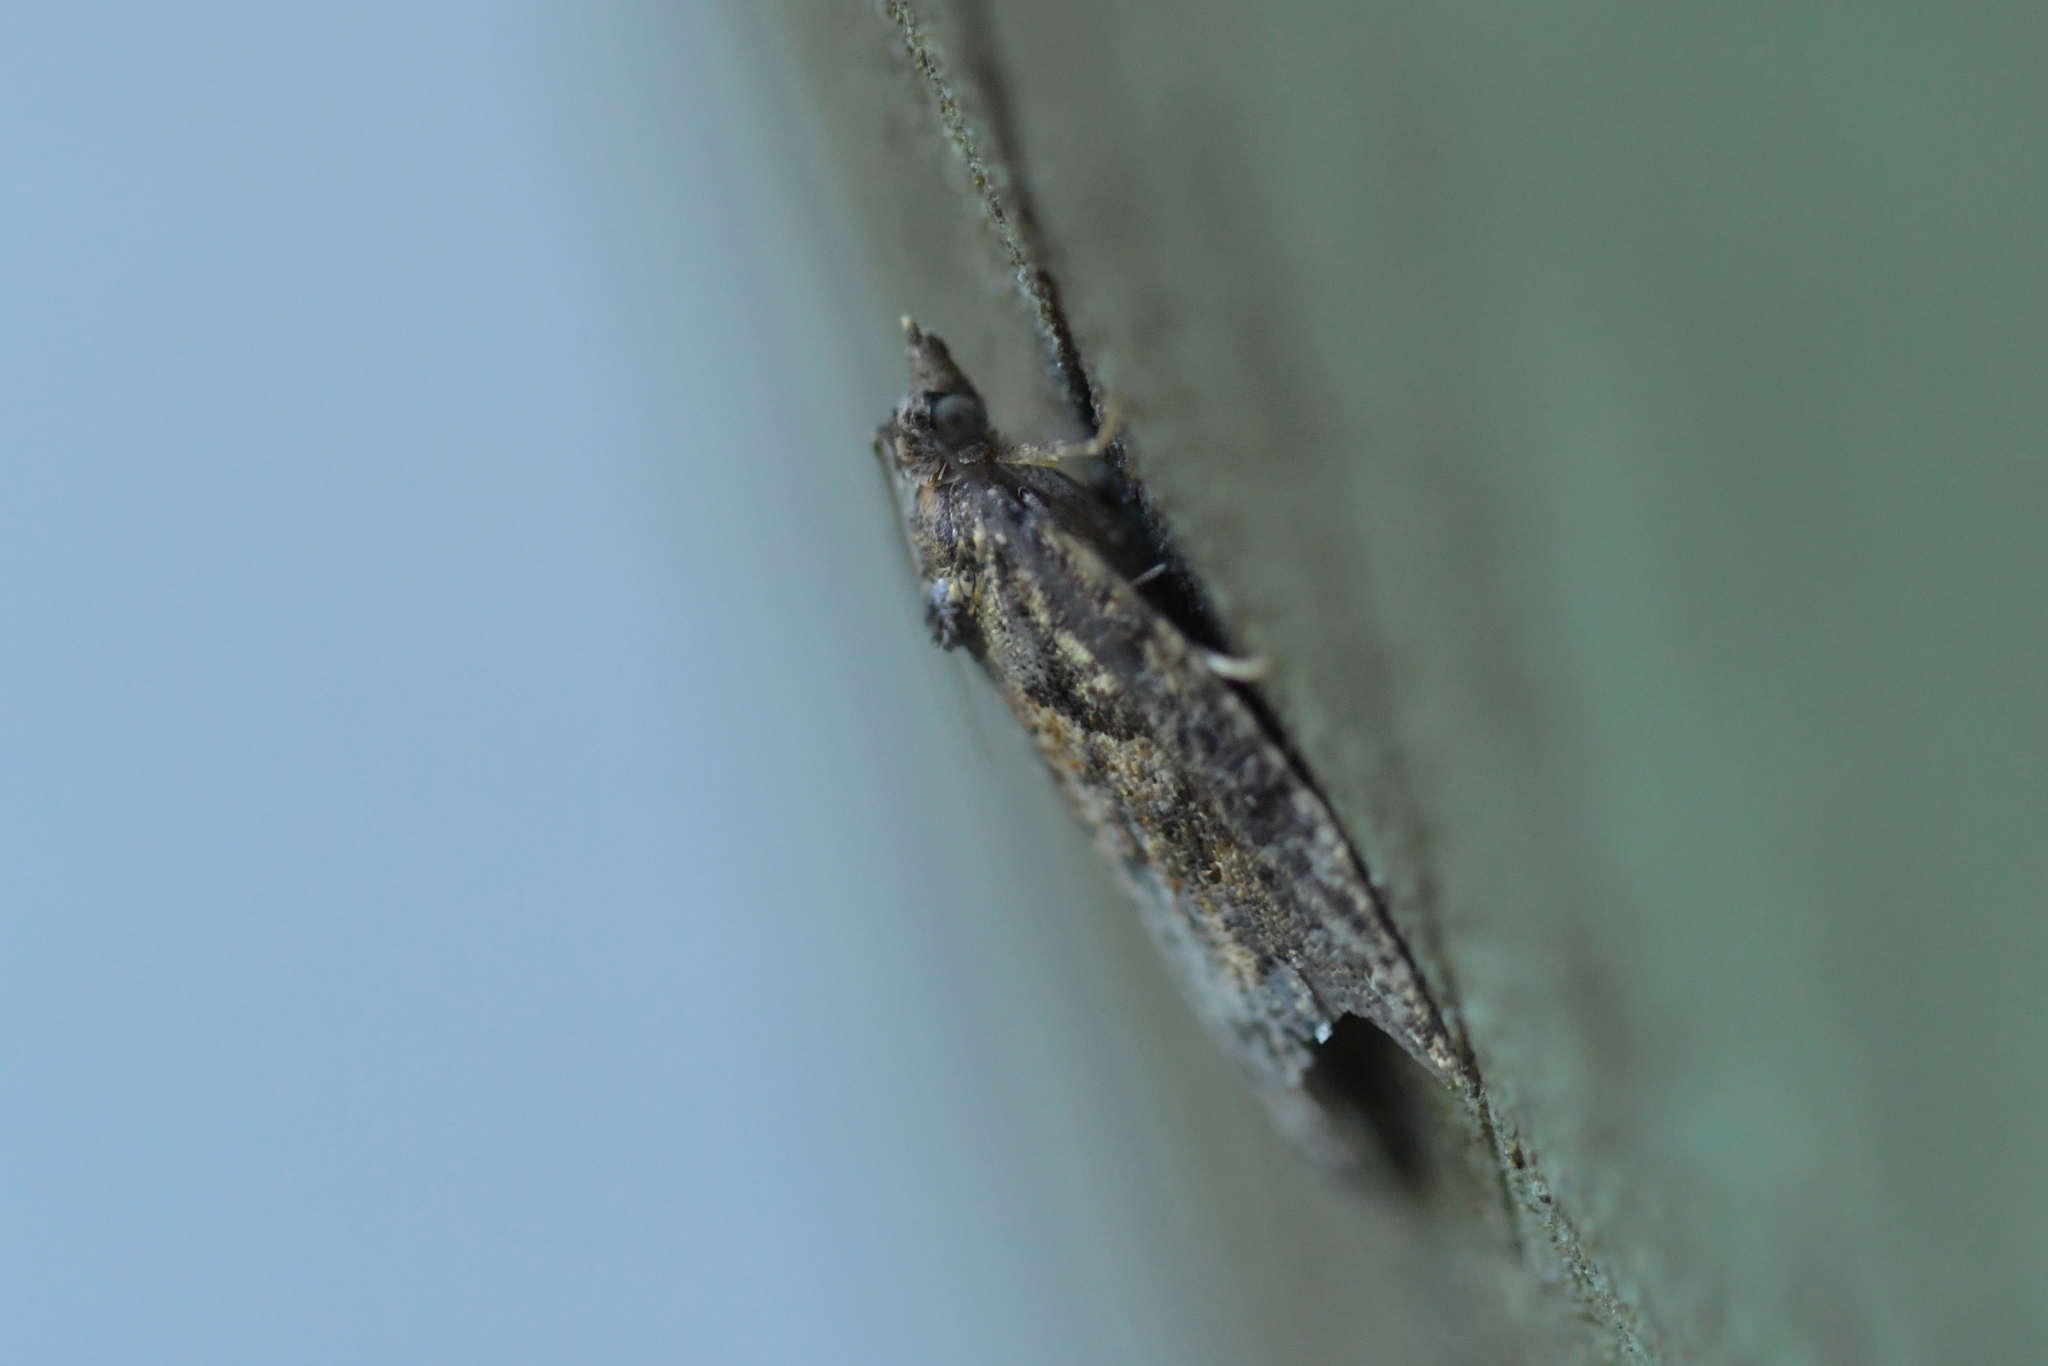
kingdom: Animalia
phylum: Arthropoda
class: Insecta
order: Lepidoptera
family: Tortricidae
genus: Capua
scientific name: Capua intractana
